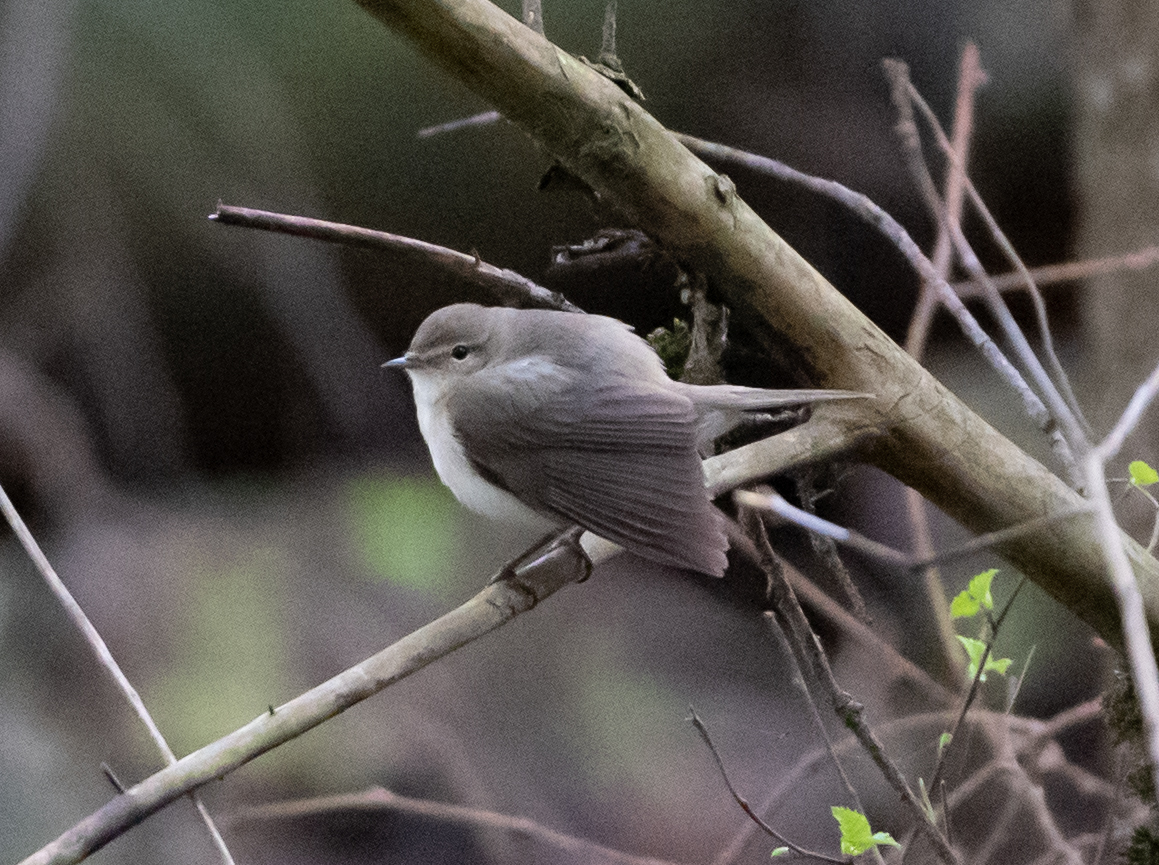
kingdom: Animalia
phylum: Chordata
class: Aves
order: Passeriformes
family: Phylloscopidae
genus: Phylloscopus
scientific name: Phylloscopus collybita
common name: Common chiffchaff
